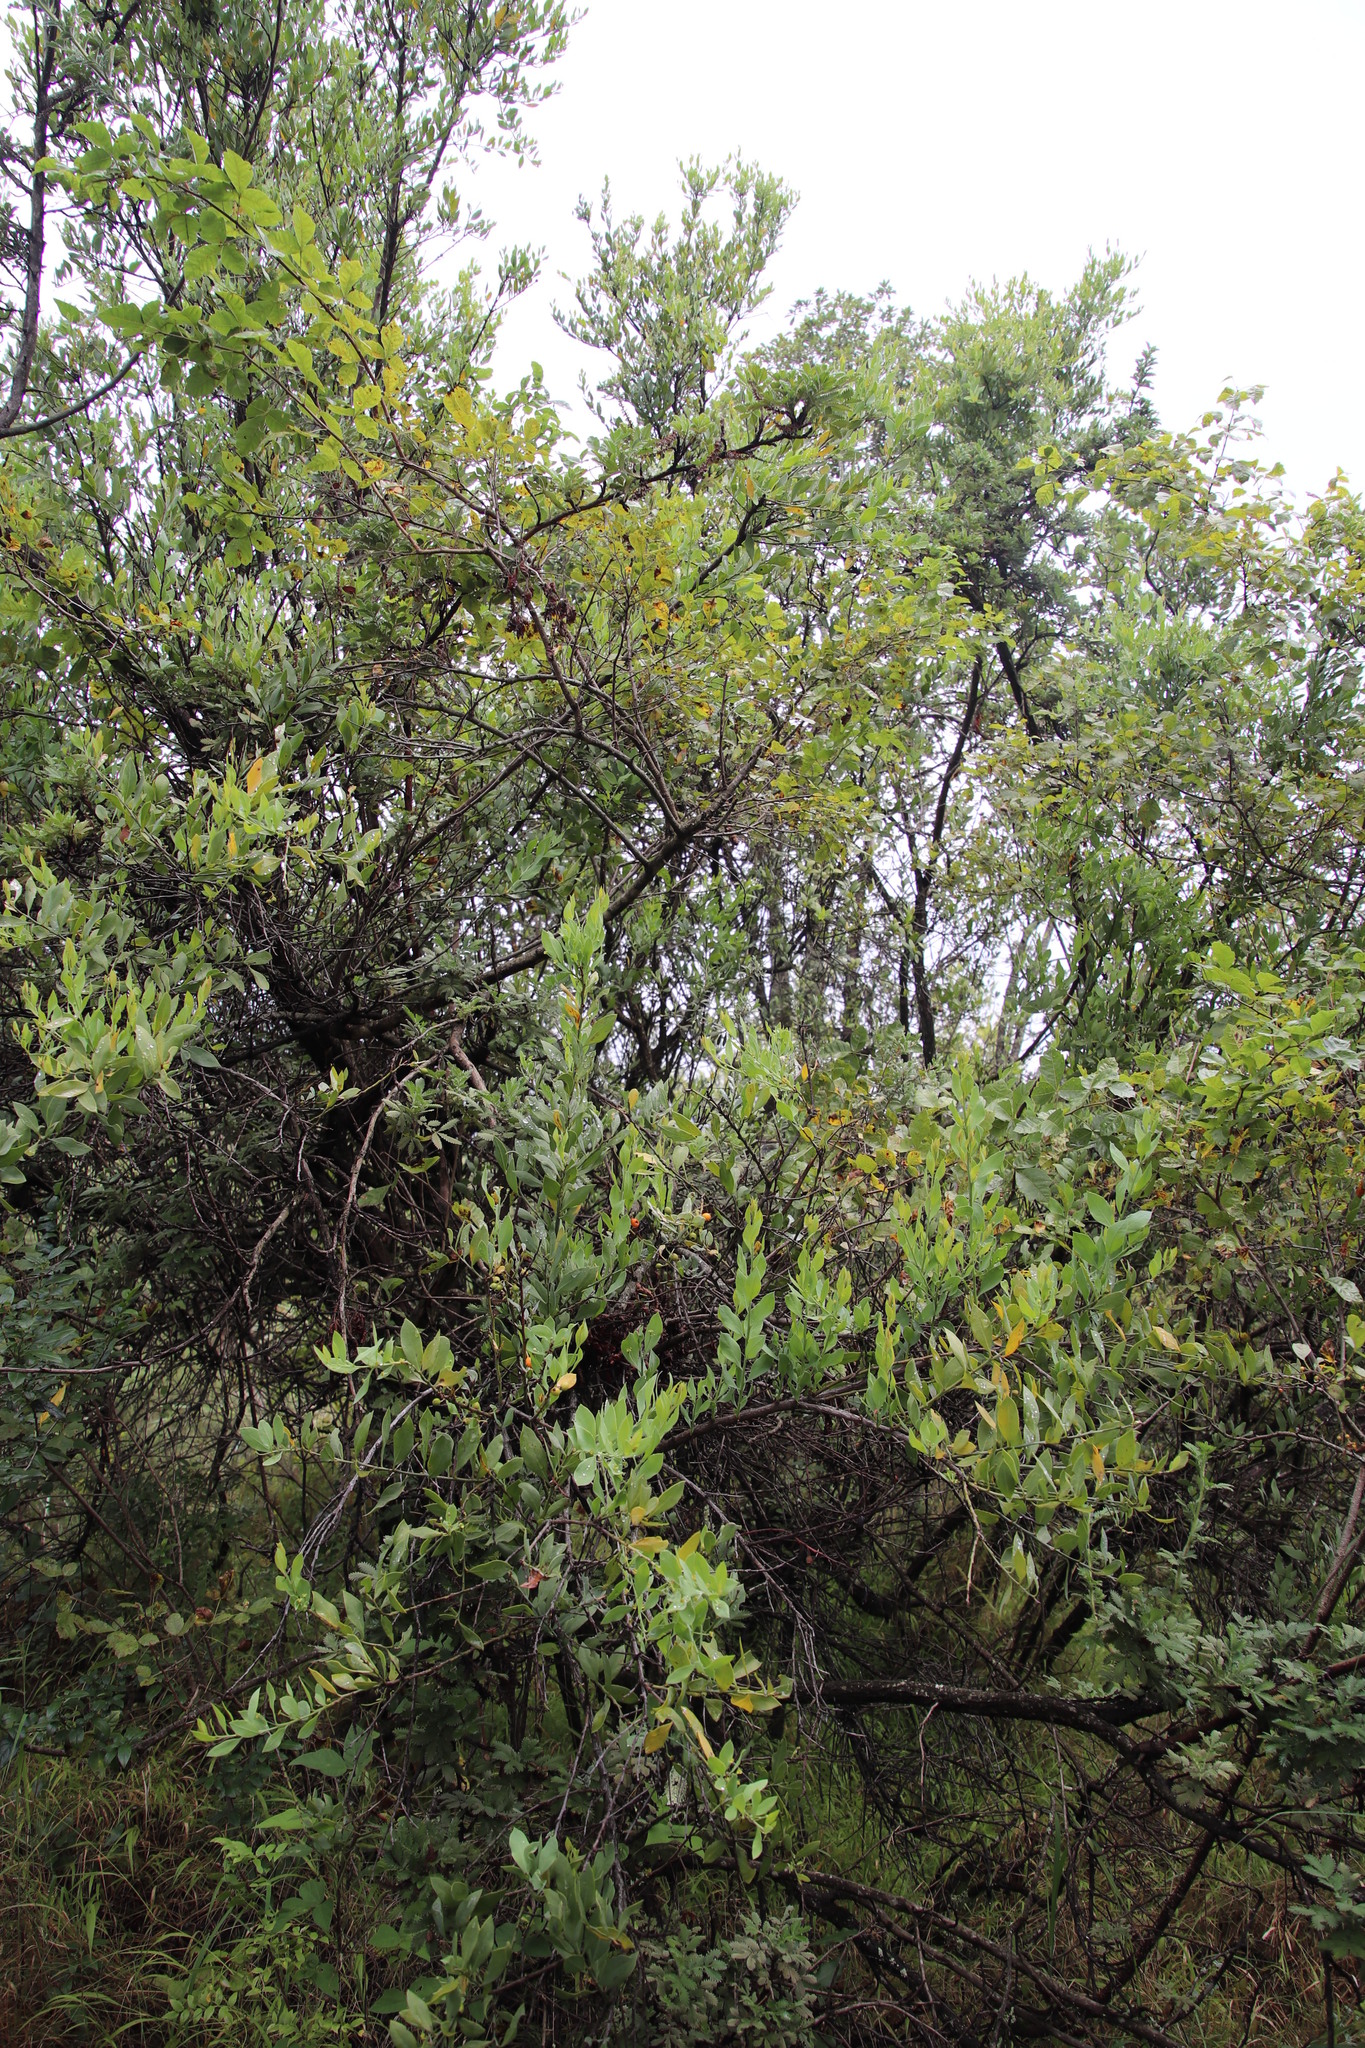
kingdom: Plantae
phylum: Tracheophyta
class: Magnoliopsida
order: Santalales
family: Santalaceae
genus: Osyris
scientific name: Osyris lanceolata
